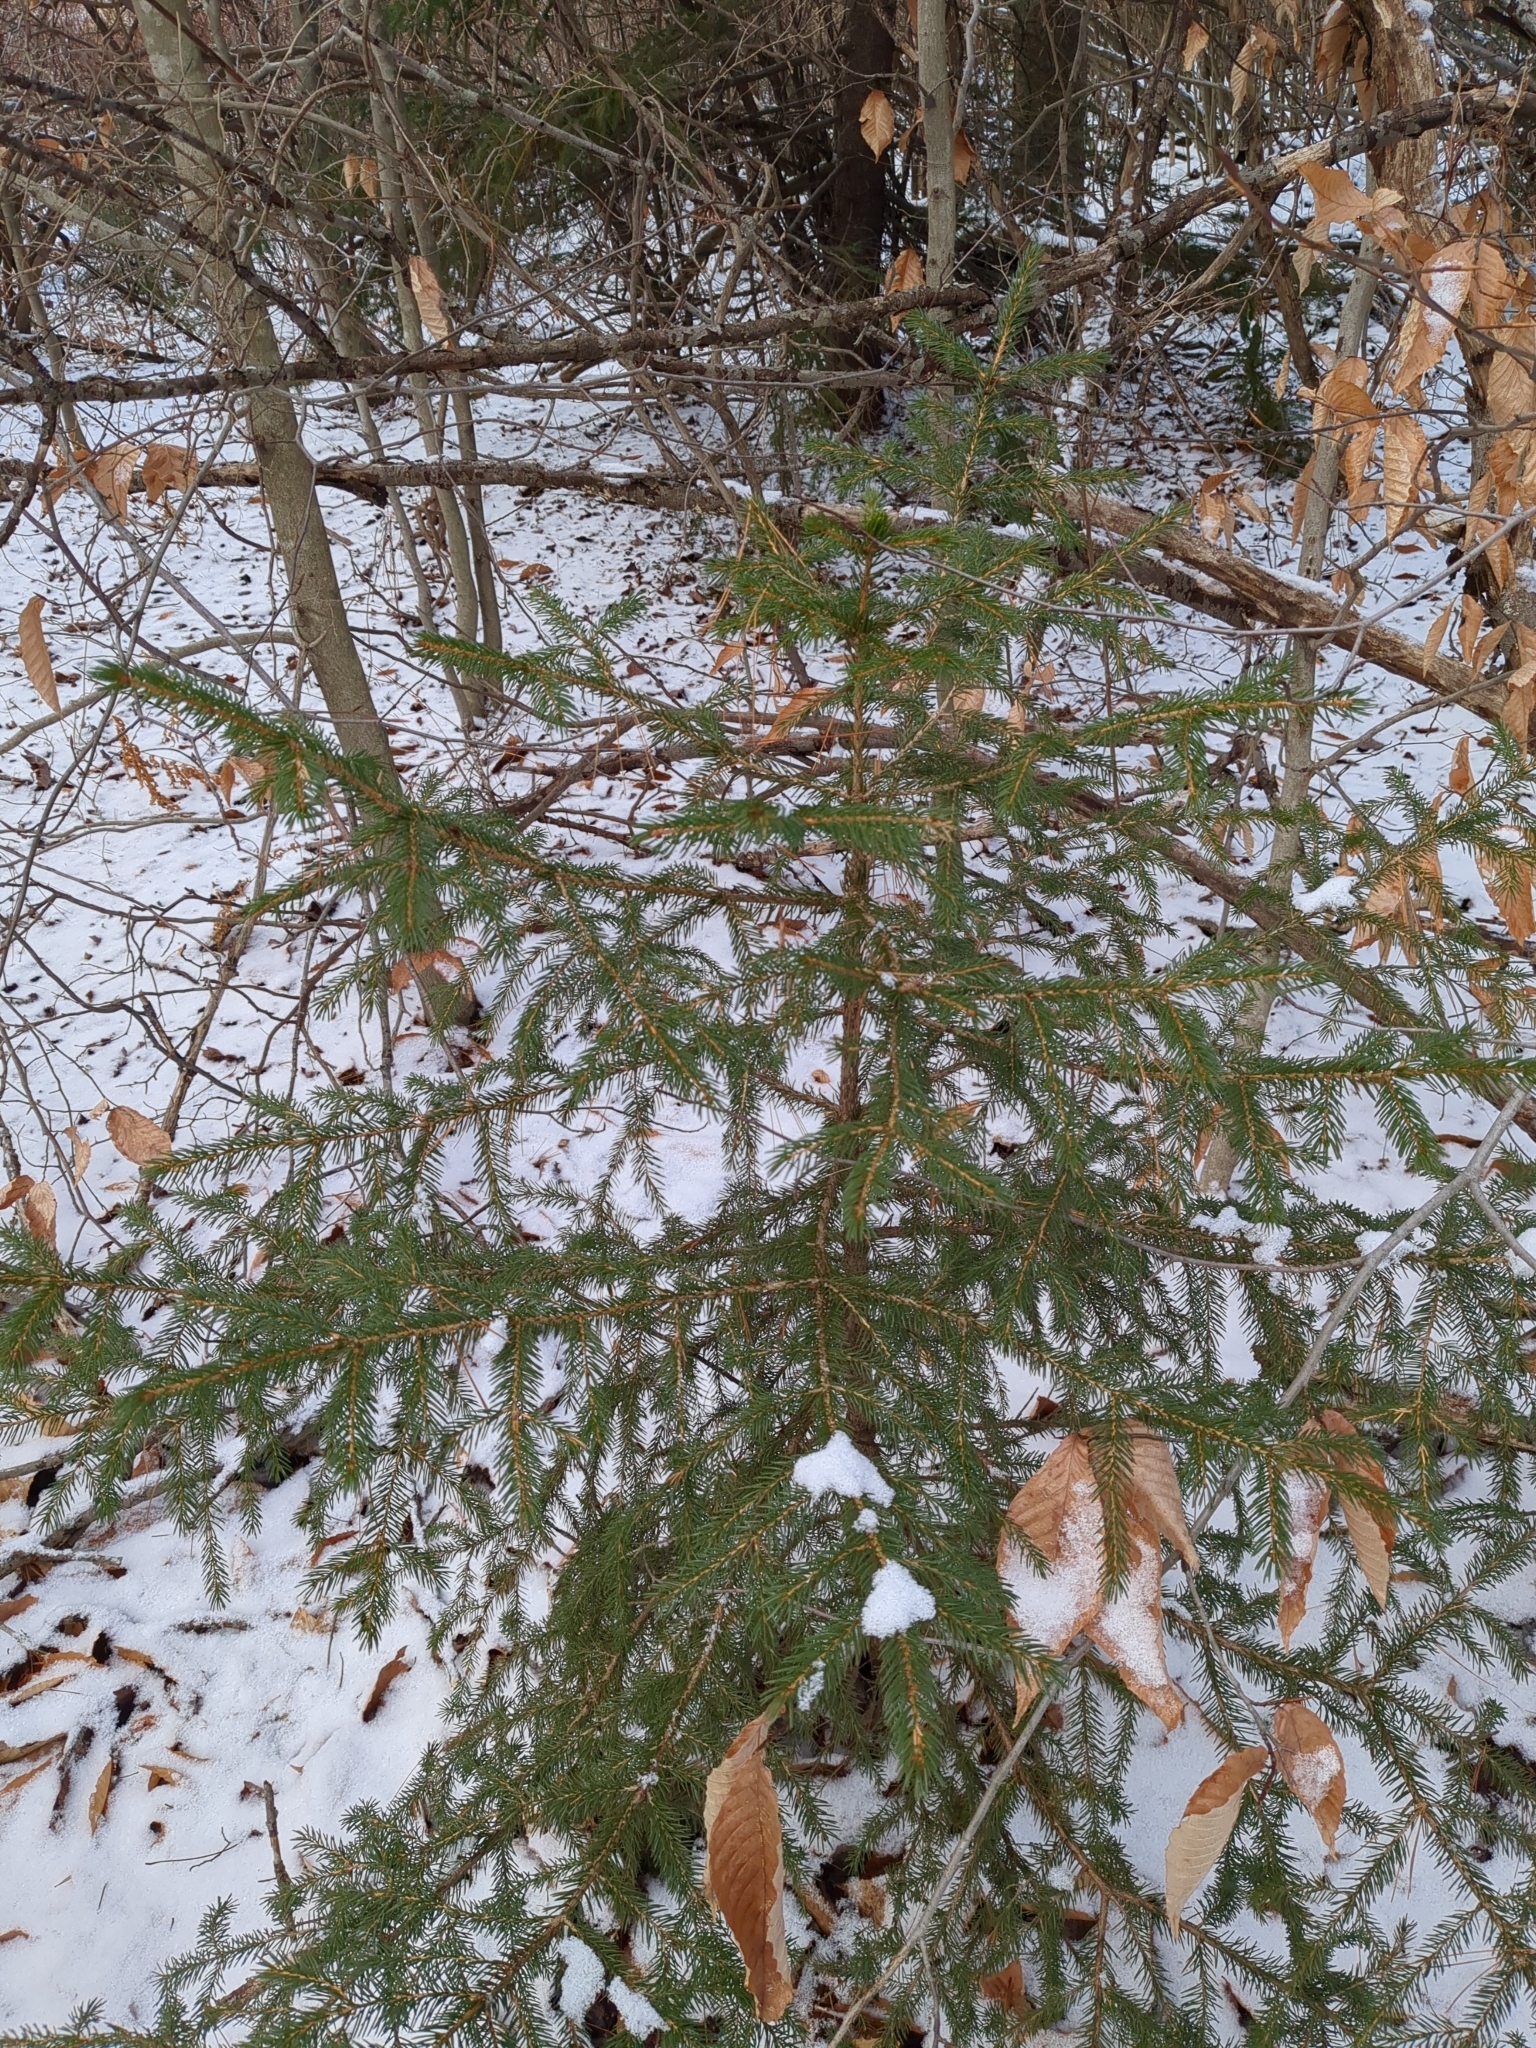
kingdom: Plantae
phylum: Tracheophyta
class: Pinopsida
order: Pinales
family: Pinaceae
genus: Picea
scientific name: Picea abies
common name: Norway spruce
